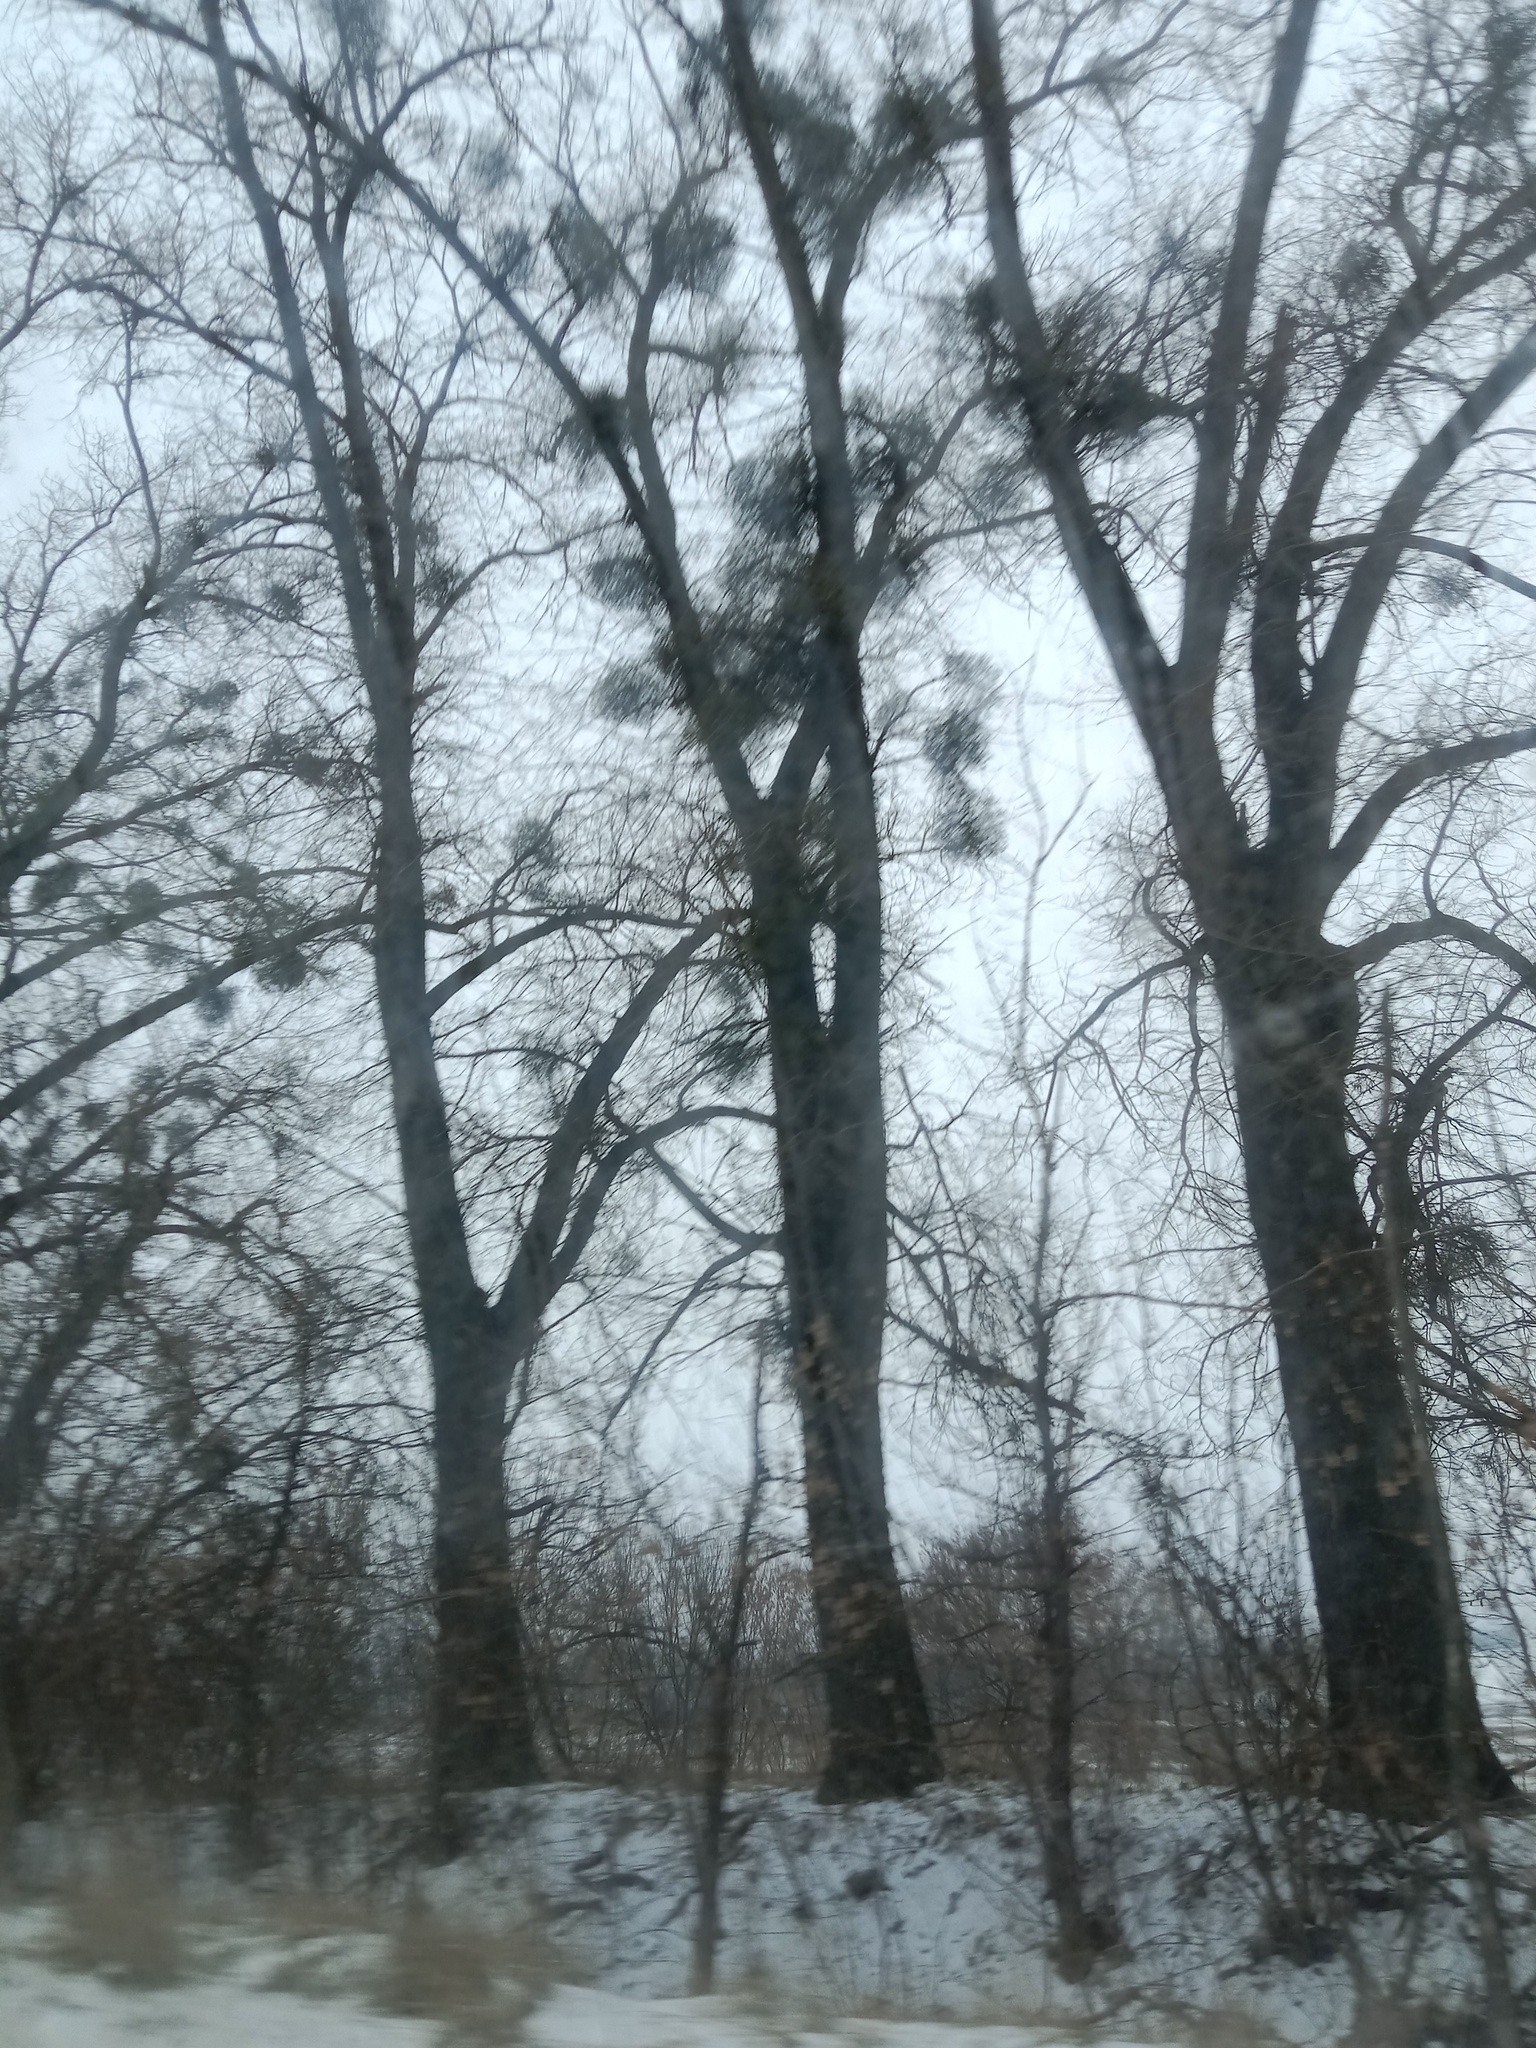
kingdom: Plantae
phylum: Tracheophyta
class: Magnoliopsida
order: Santalales
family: Viscaceae
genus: Viscum
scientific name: Viscum album
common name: Mistletoe
